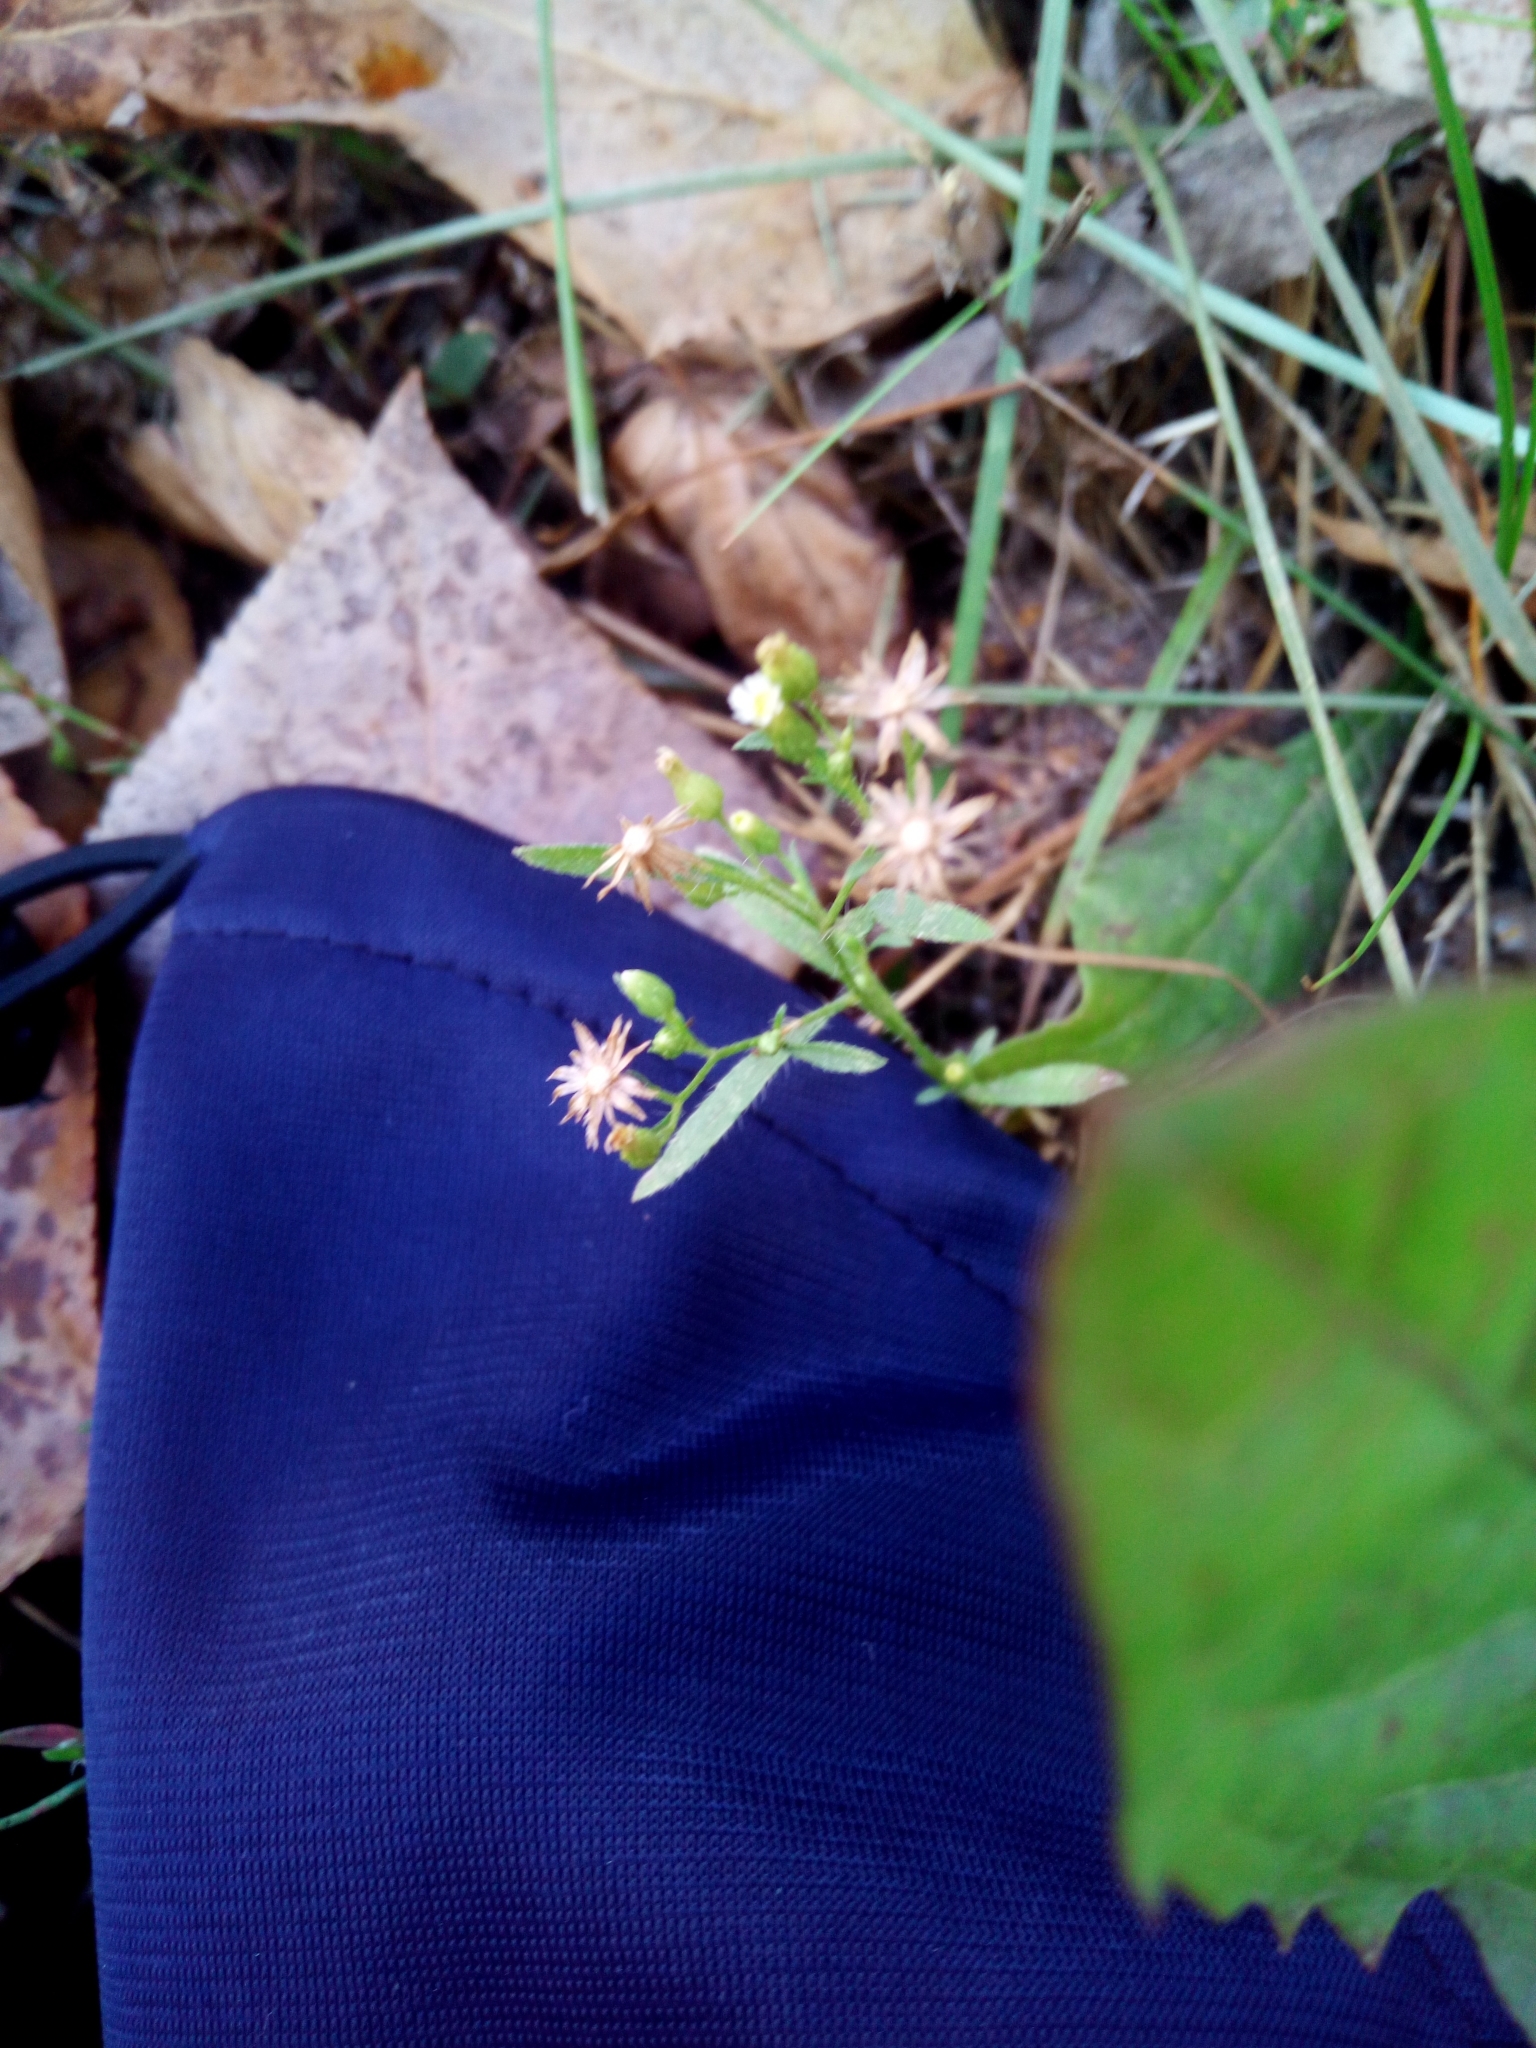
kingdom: Plantae
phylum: Tracheophyta
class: Magnoliopsida
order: Asterales
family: Asteraceae
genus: Erigeron
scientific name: Erigeron canadensis
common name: Canadian fleabane
